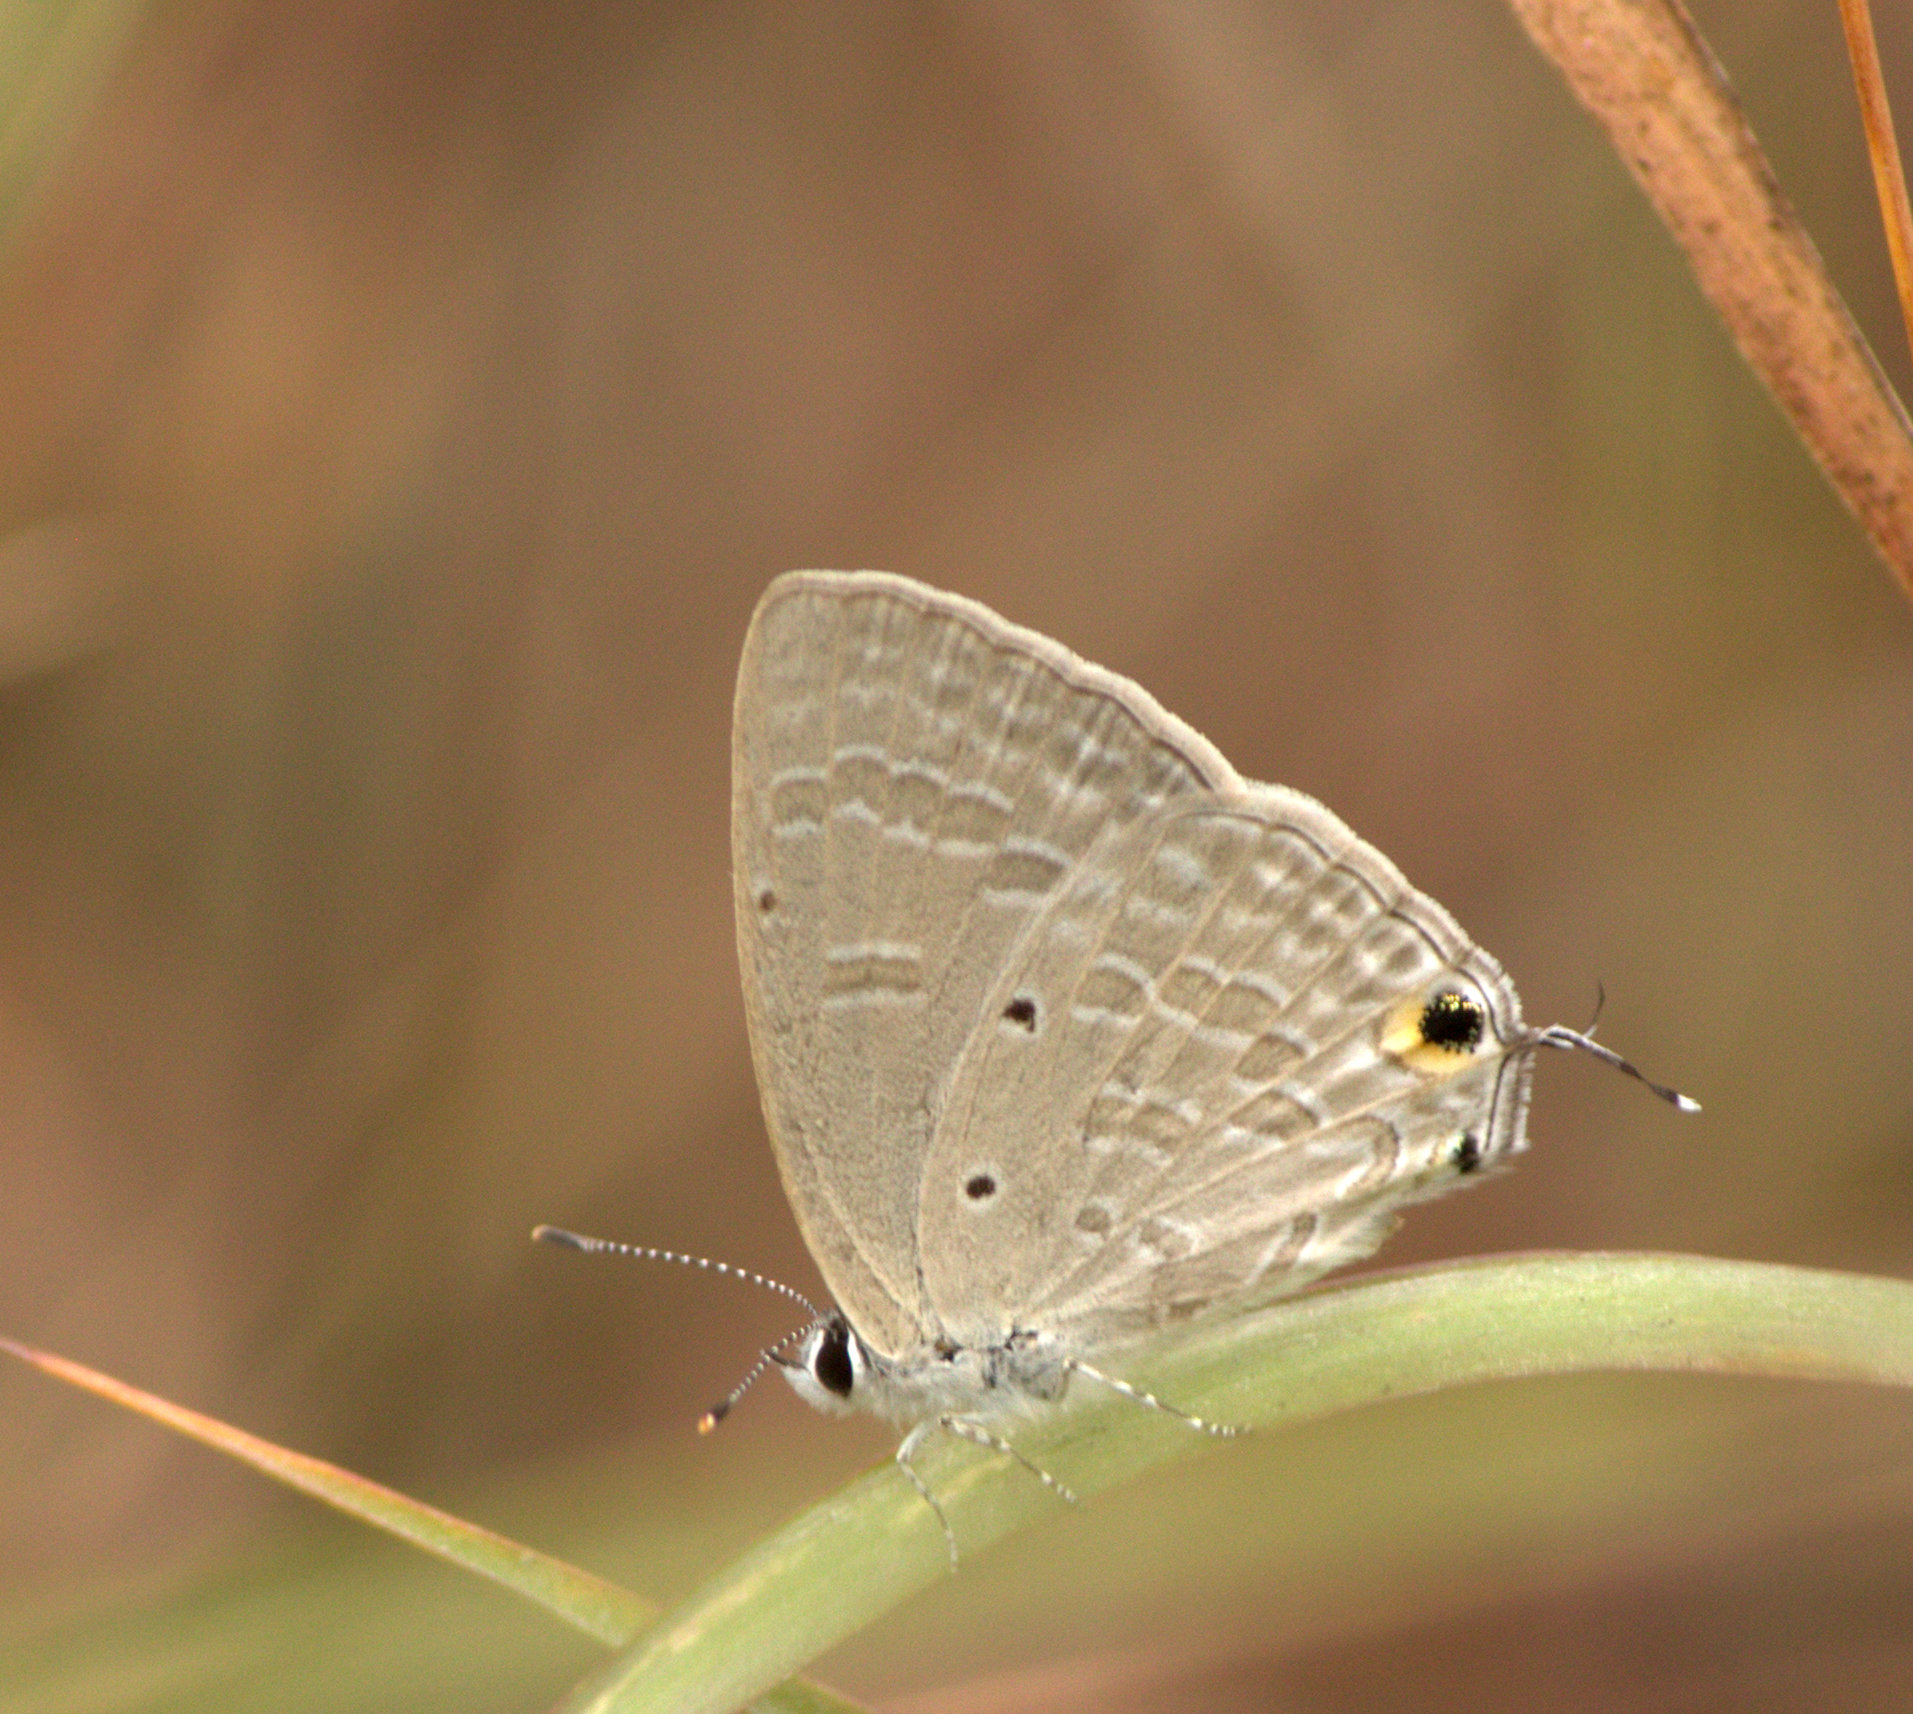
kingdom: Animalia
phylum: Arthropoda
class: Insecta
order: Lepidoptera
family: Lycaenidae
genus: Catochrysops
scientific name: Catochrysops strabo
